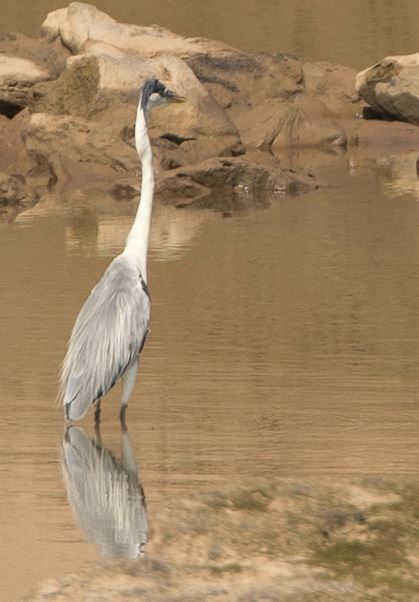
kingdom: Animalia
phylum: Chordata
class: Aves
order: Pelecaniformes
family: Ardeidae
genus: Ardea
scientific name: Ardea cocoi
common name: Cocoi heron
